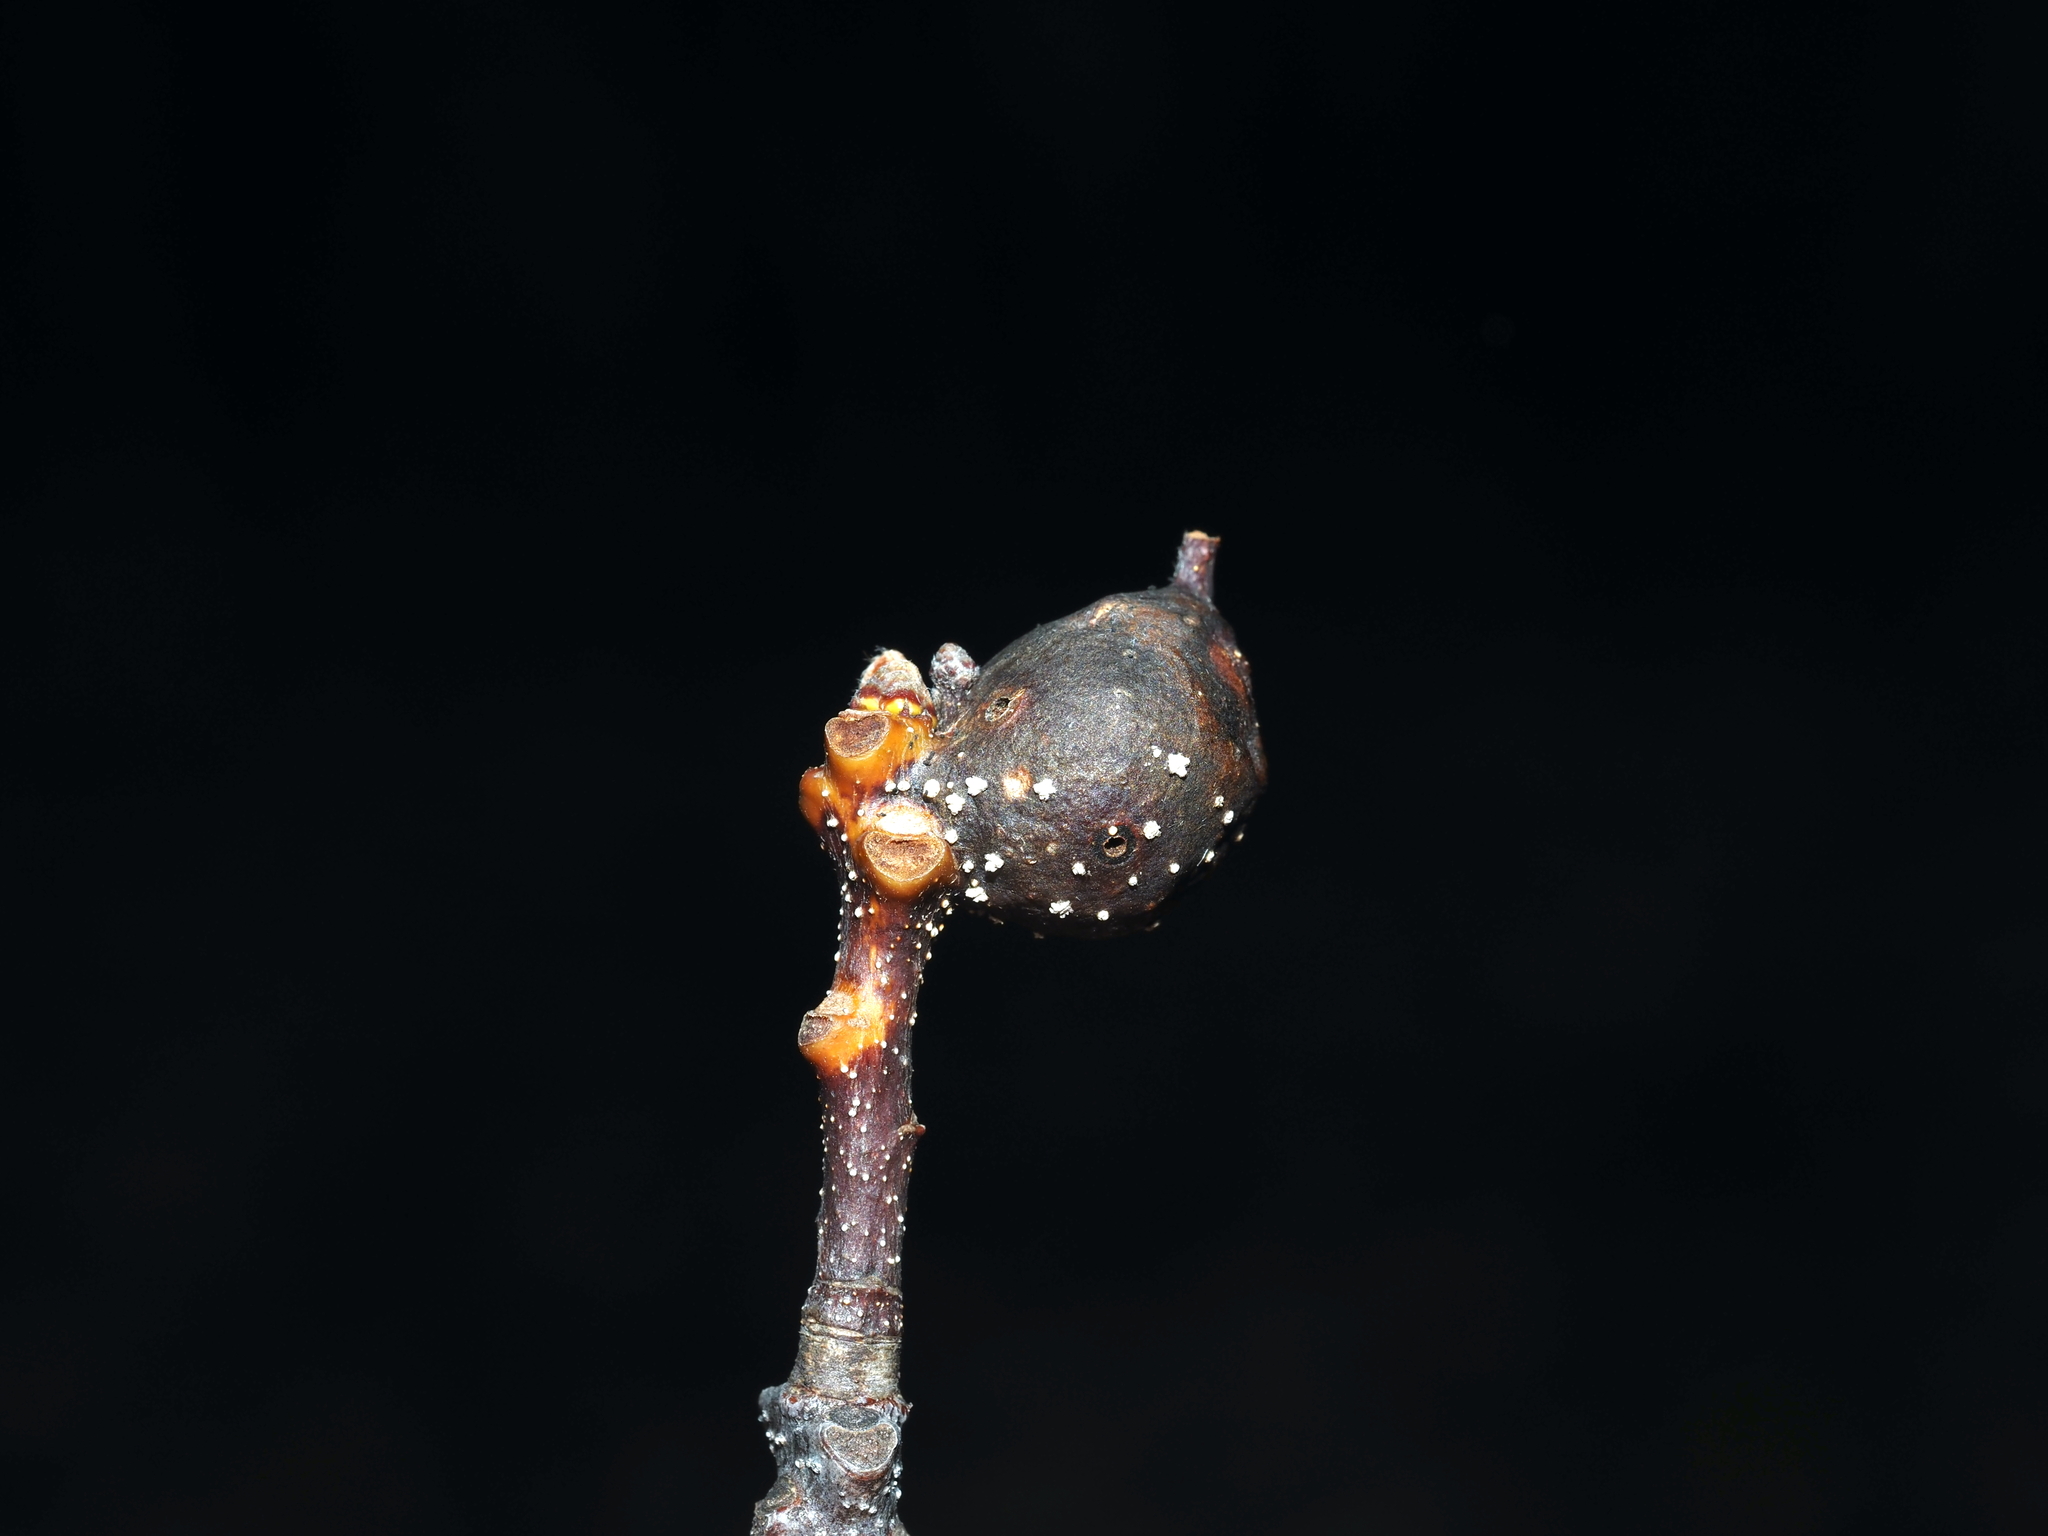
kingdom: Animalia
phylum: Arthropoda
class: Insecta
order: Hymenoptera
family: Cynipidae
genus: Andricus
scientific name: Andricus
